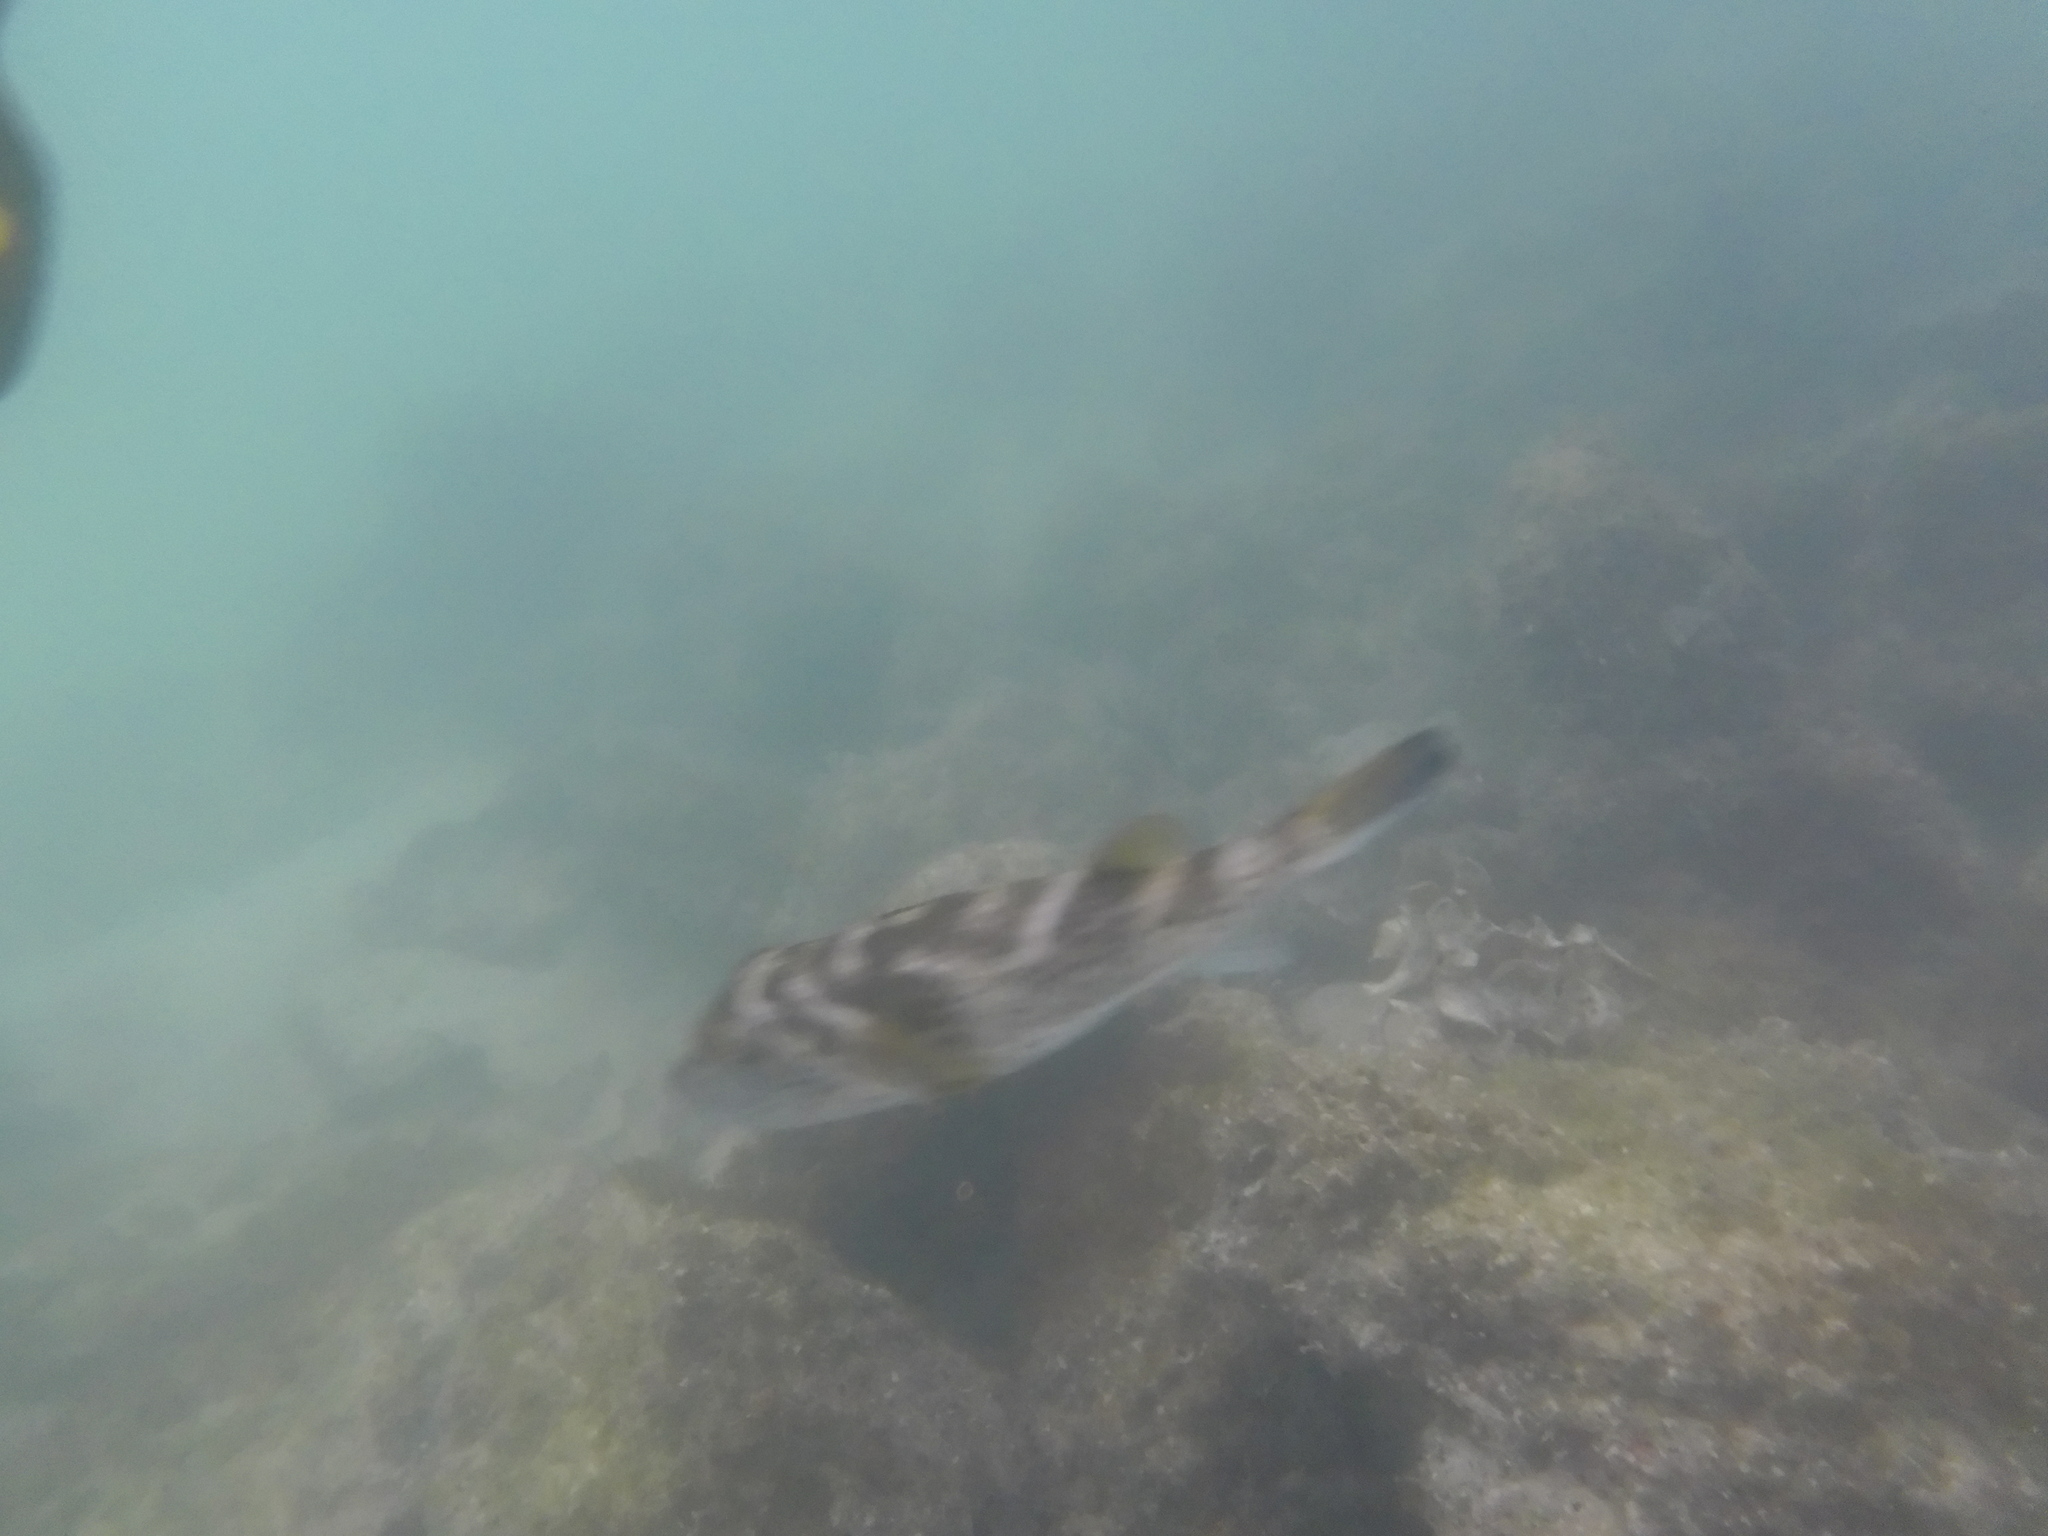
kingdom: Animalia
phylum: Chordata
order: Tetraodontiformes
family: Tetraodontidae
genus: Sphoeroides
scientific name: Sphoeroides annulatus
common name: Bullseye puffer
